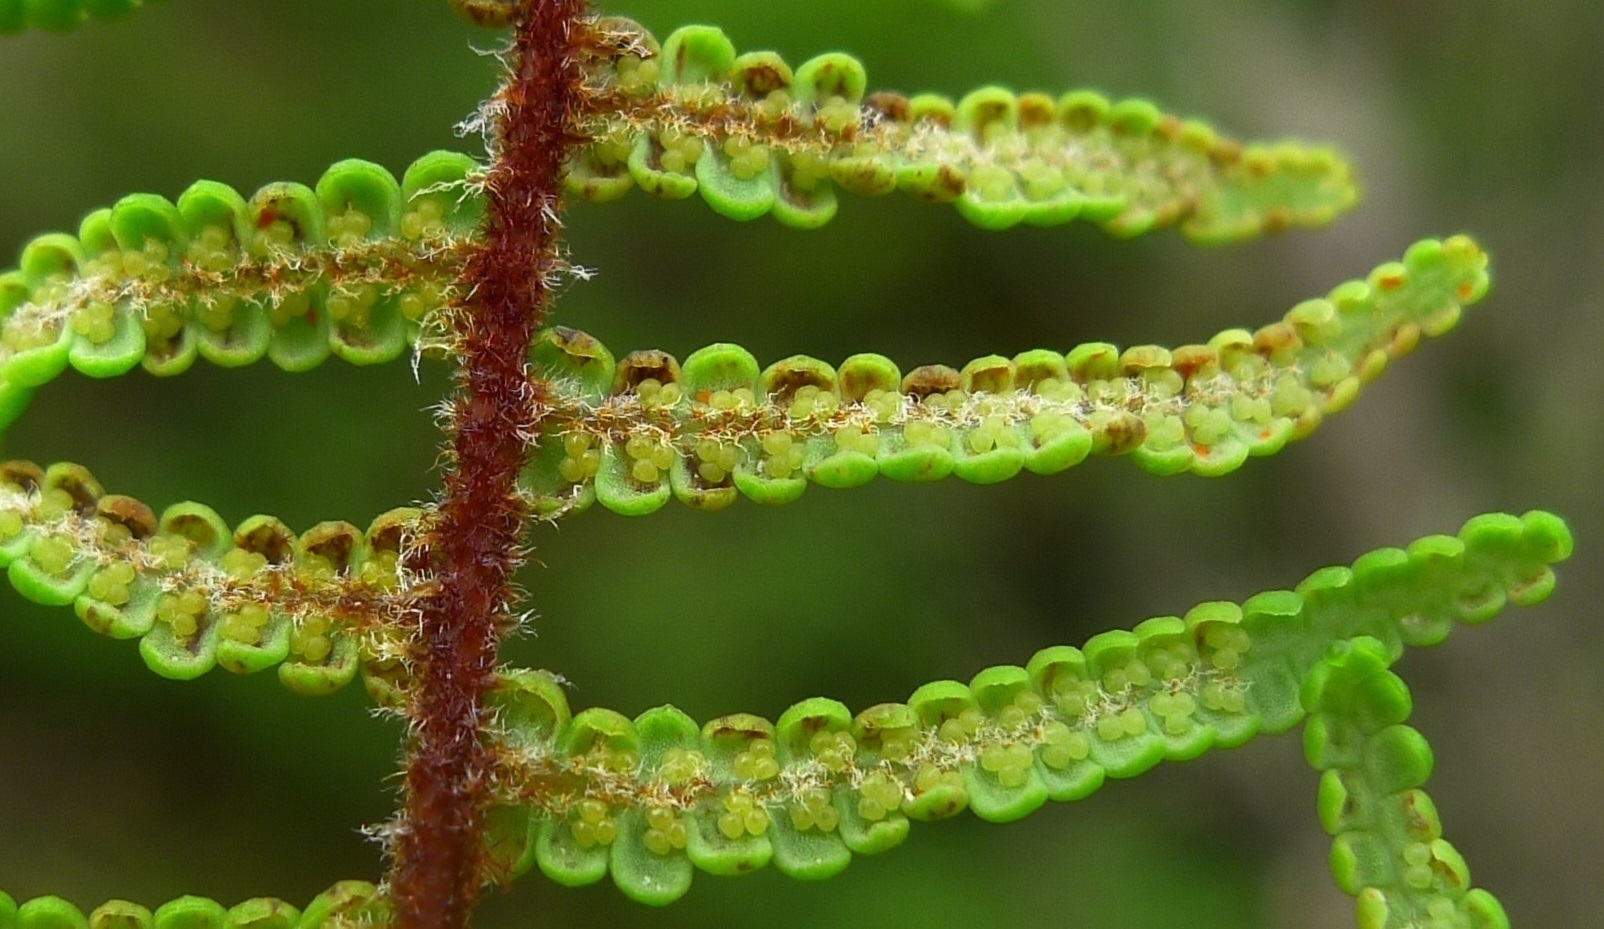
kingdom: Plantae
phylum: Tracheophyta
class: Polypodiopsida
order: Gleicheniales
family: Gleicheniaceae
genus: Gleichenia
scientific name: Gleichenia dicarpa
